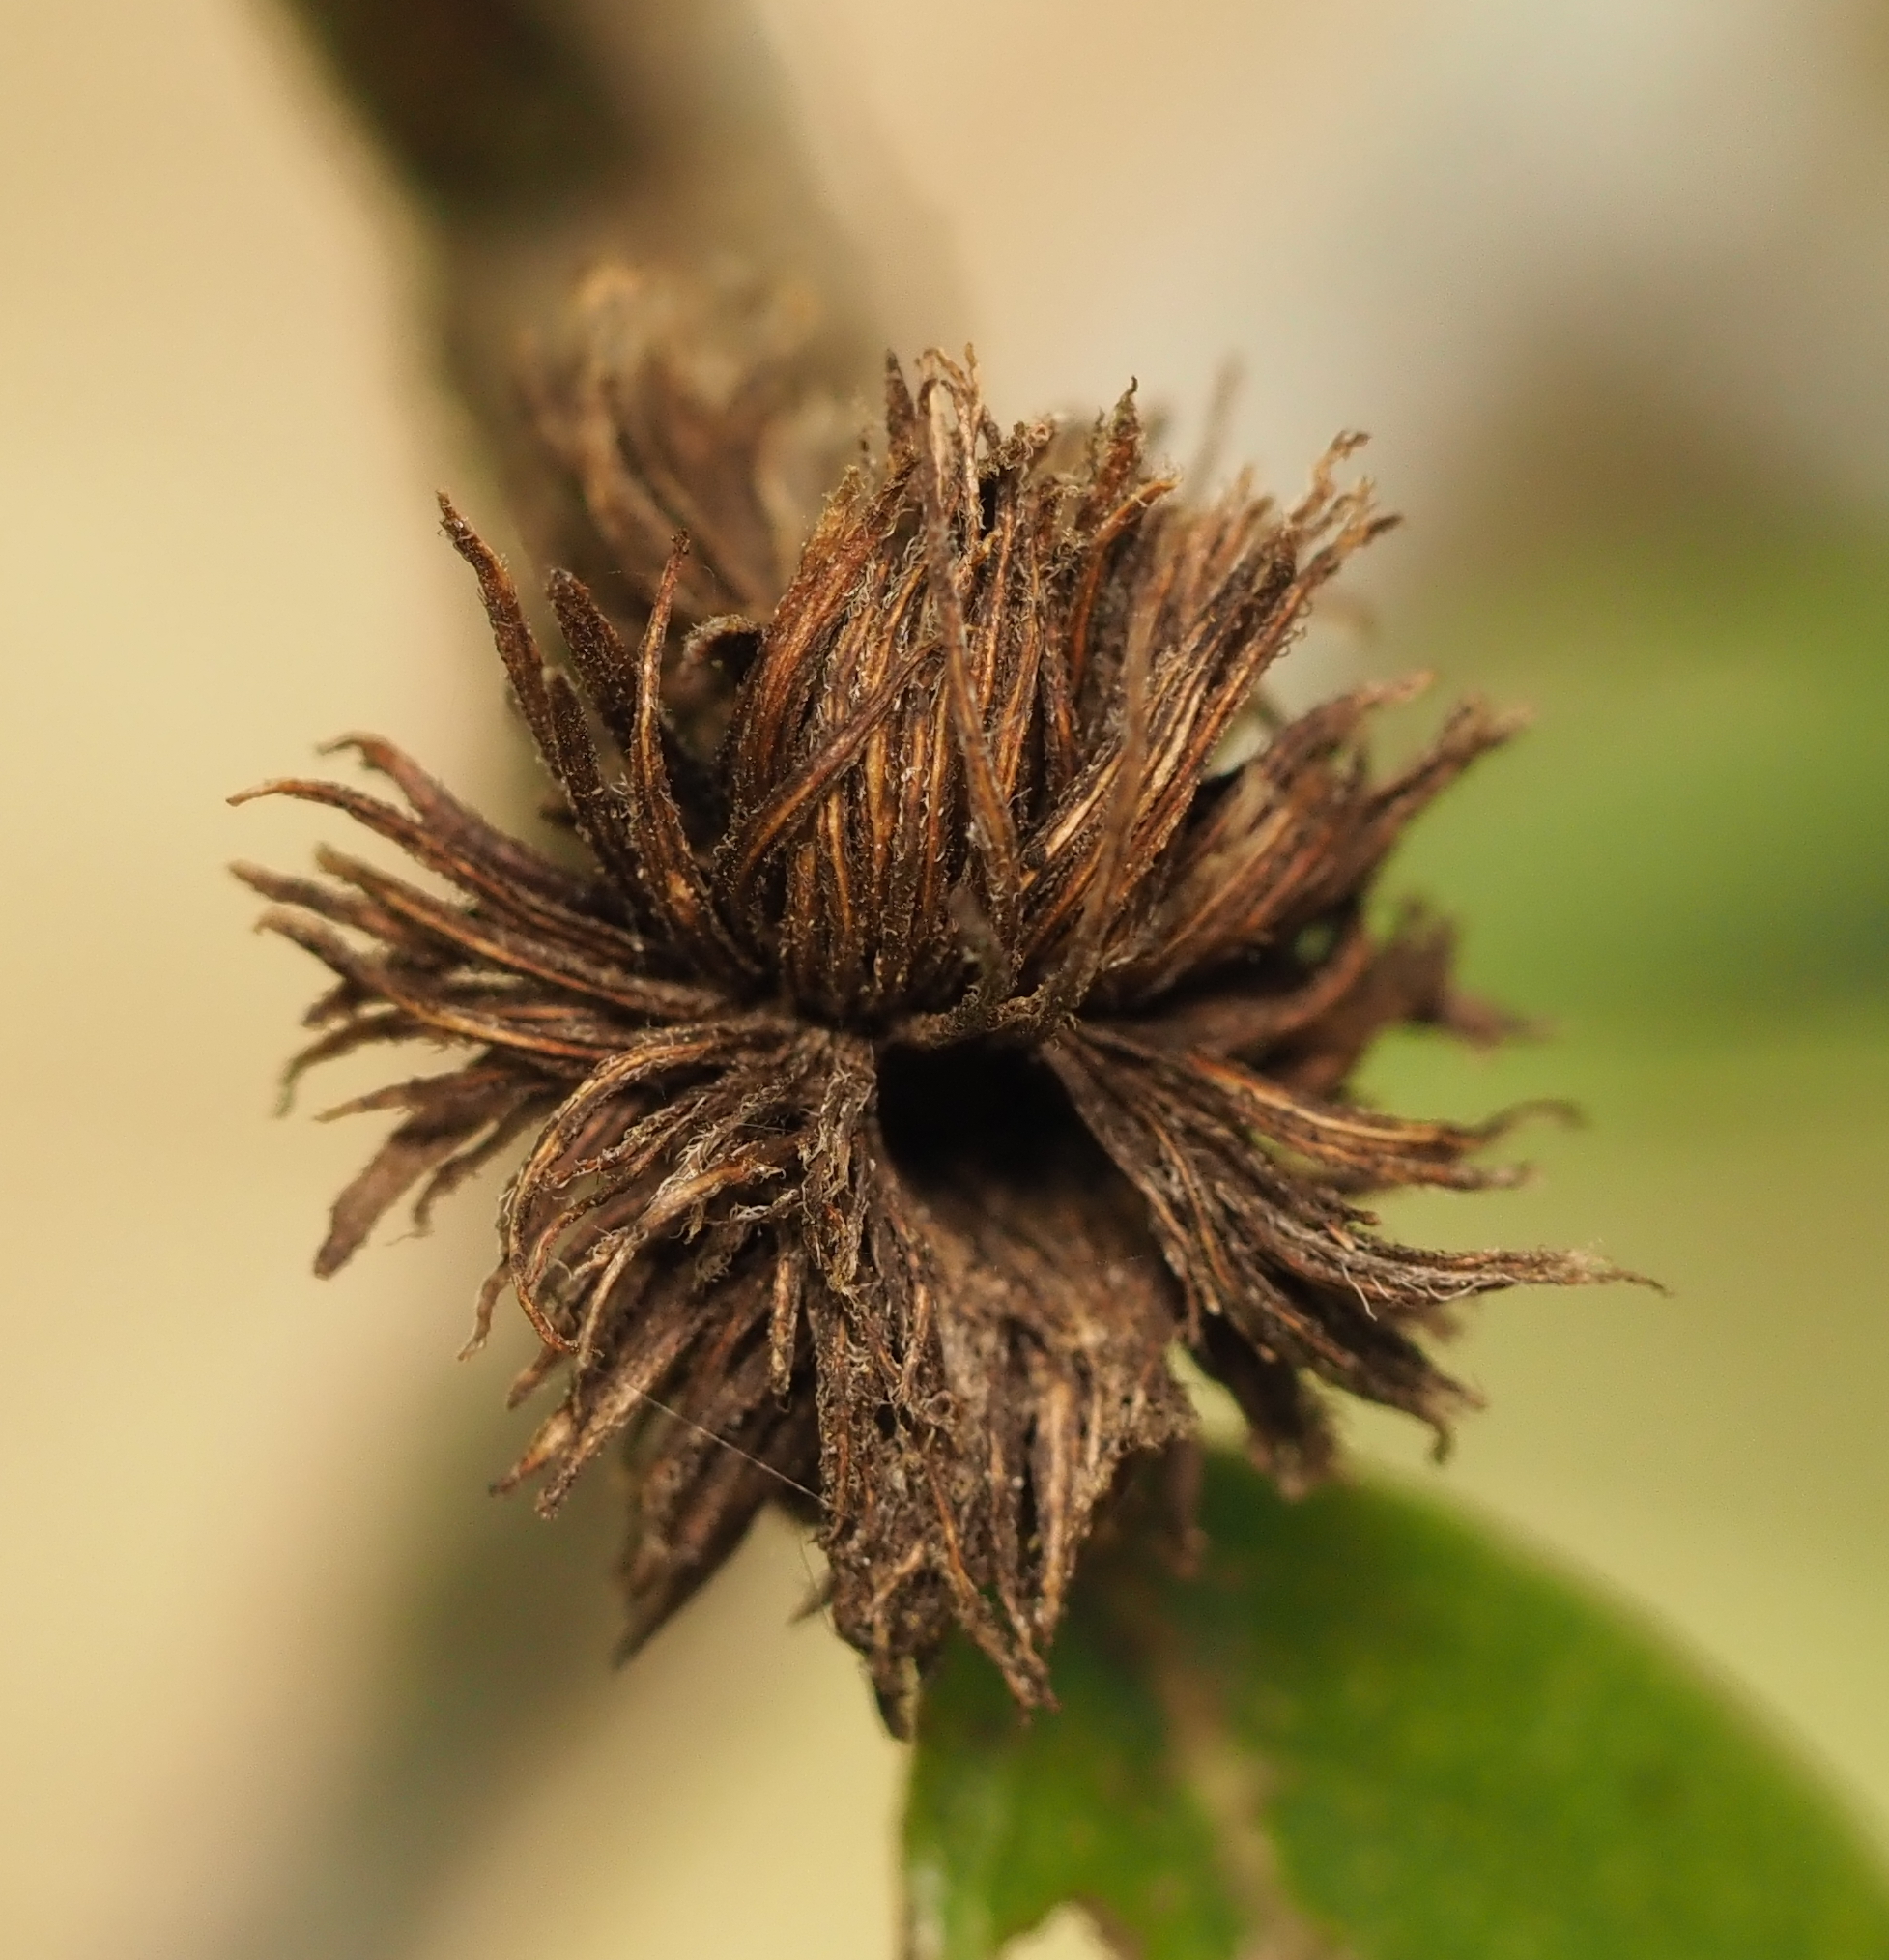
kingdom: Animalia
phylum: Arthropoda
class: Insecta
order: Hymenoptera
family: Cynipidae
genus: Andricus
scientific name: Andricus quercusfoliatus
